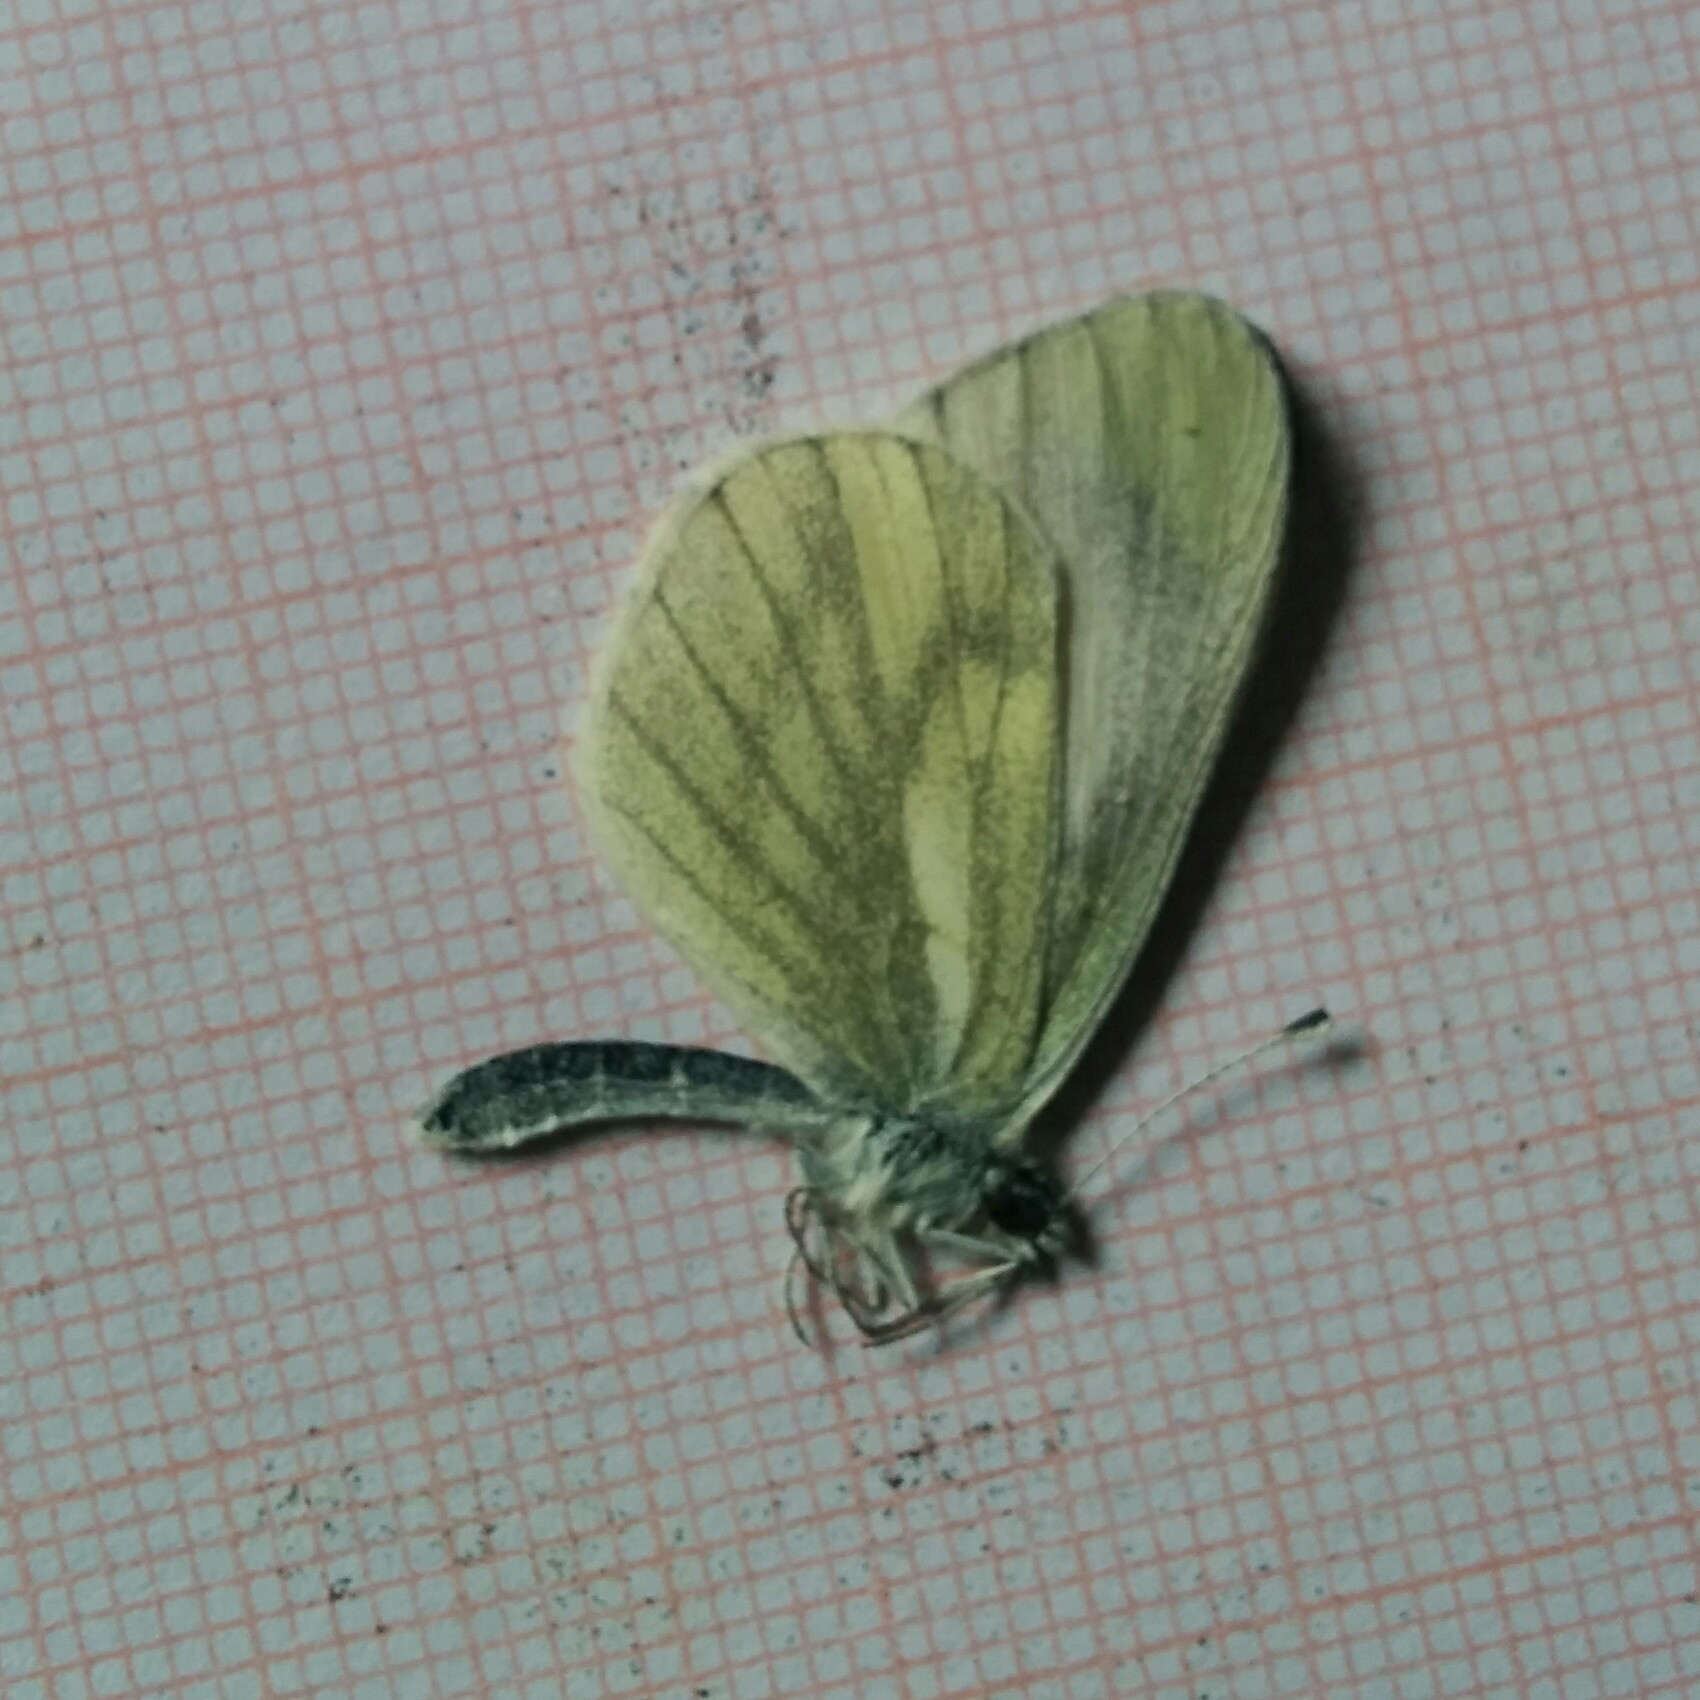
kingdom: Animalia
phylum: Arthropoda
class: Insecta
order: Lepidoptera
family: Pieridae
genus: Leptidea
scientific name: Leptidea sinapis
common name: Wood white
